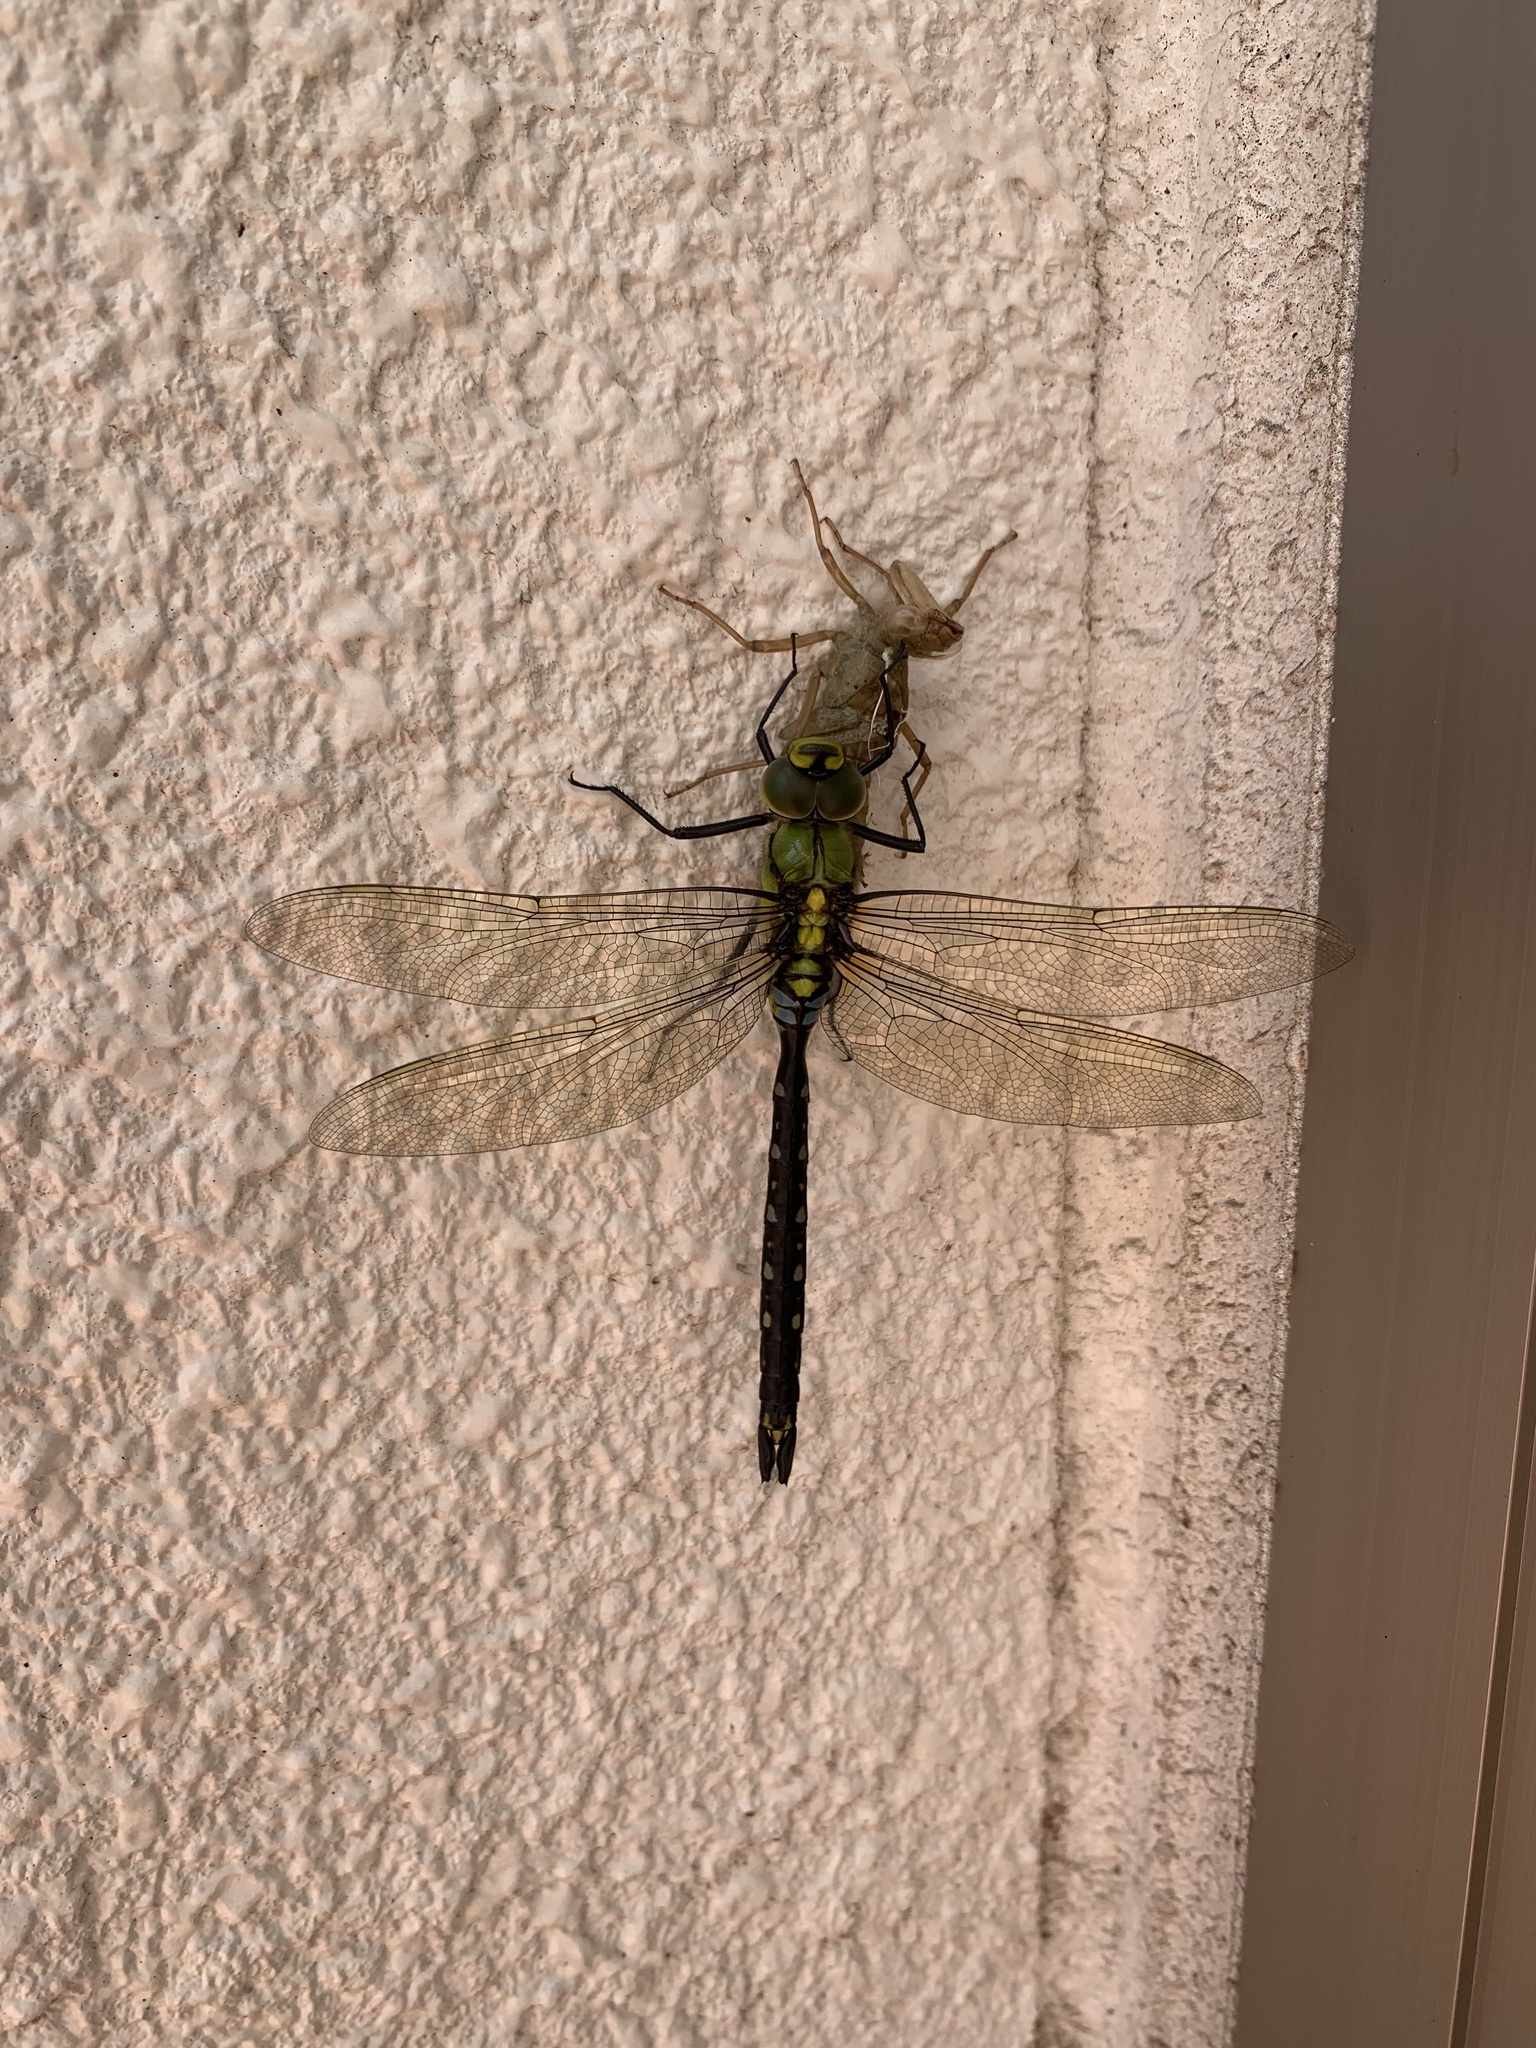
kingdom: Animalia
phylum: Arthropoda
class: Insecta
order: Odonata
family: Aeshnidae
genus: Anax
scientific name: Anax nigrofasciatus
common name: Blue-spotted emperor
